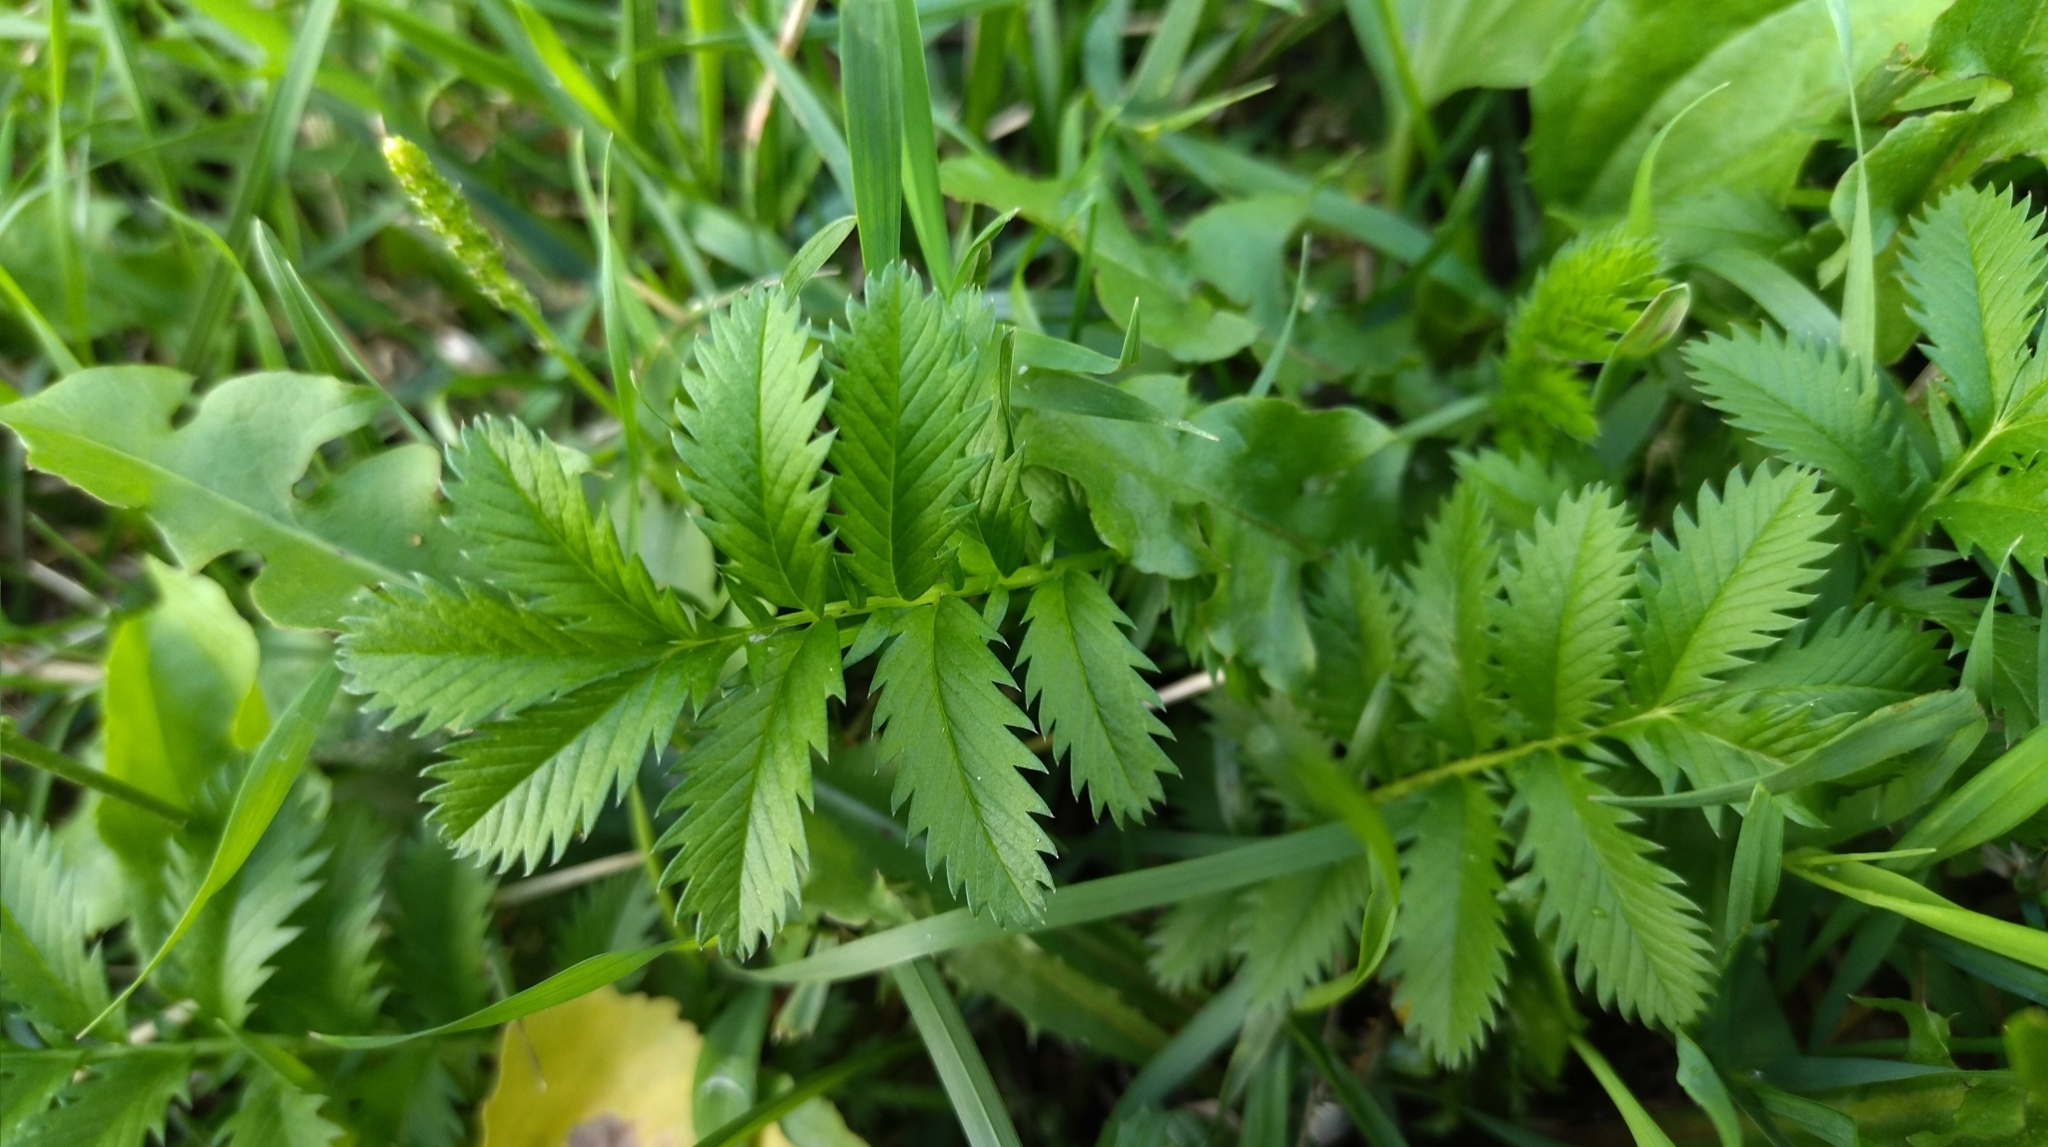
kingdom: Plantae
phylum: Tracheophyta
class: Magnoliopsida
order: Rosales
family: Rosaceae
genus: Argentina
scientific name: Argentina anserina
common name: Common silverweed
